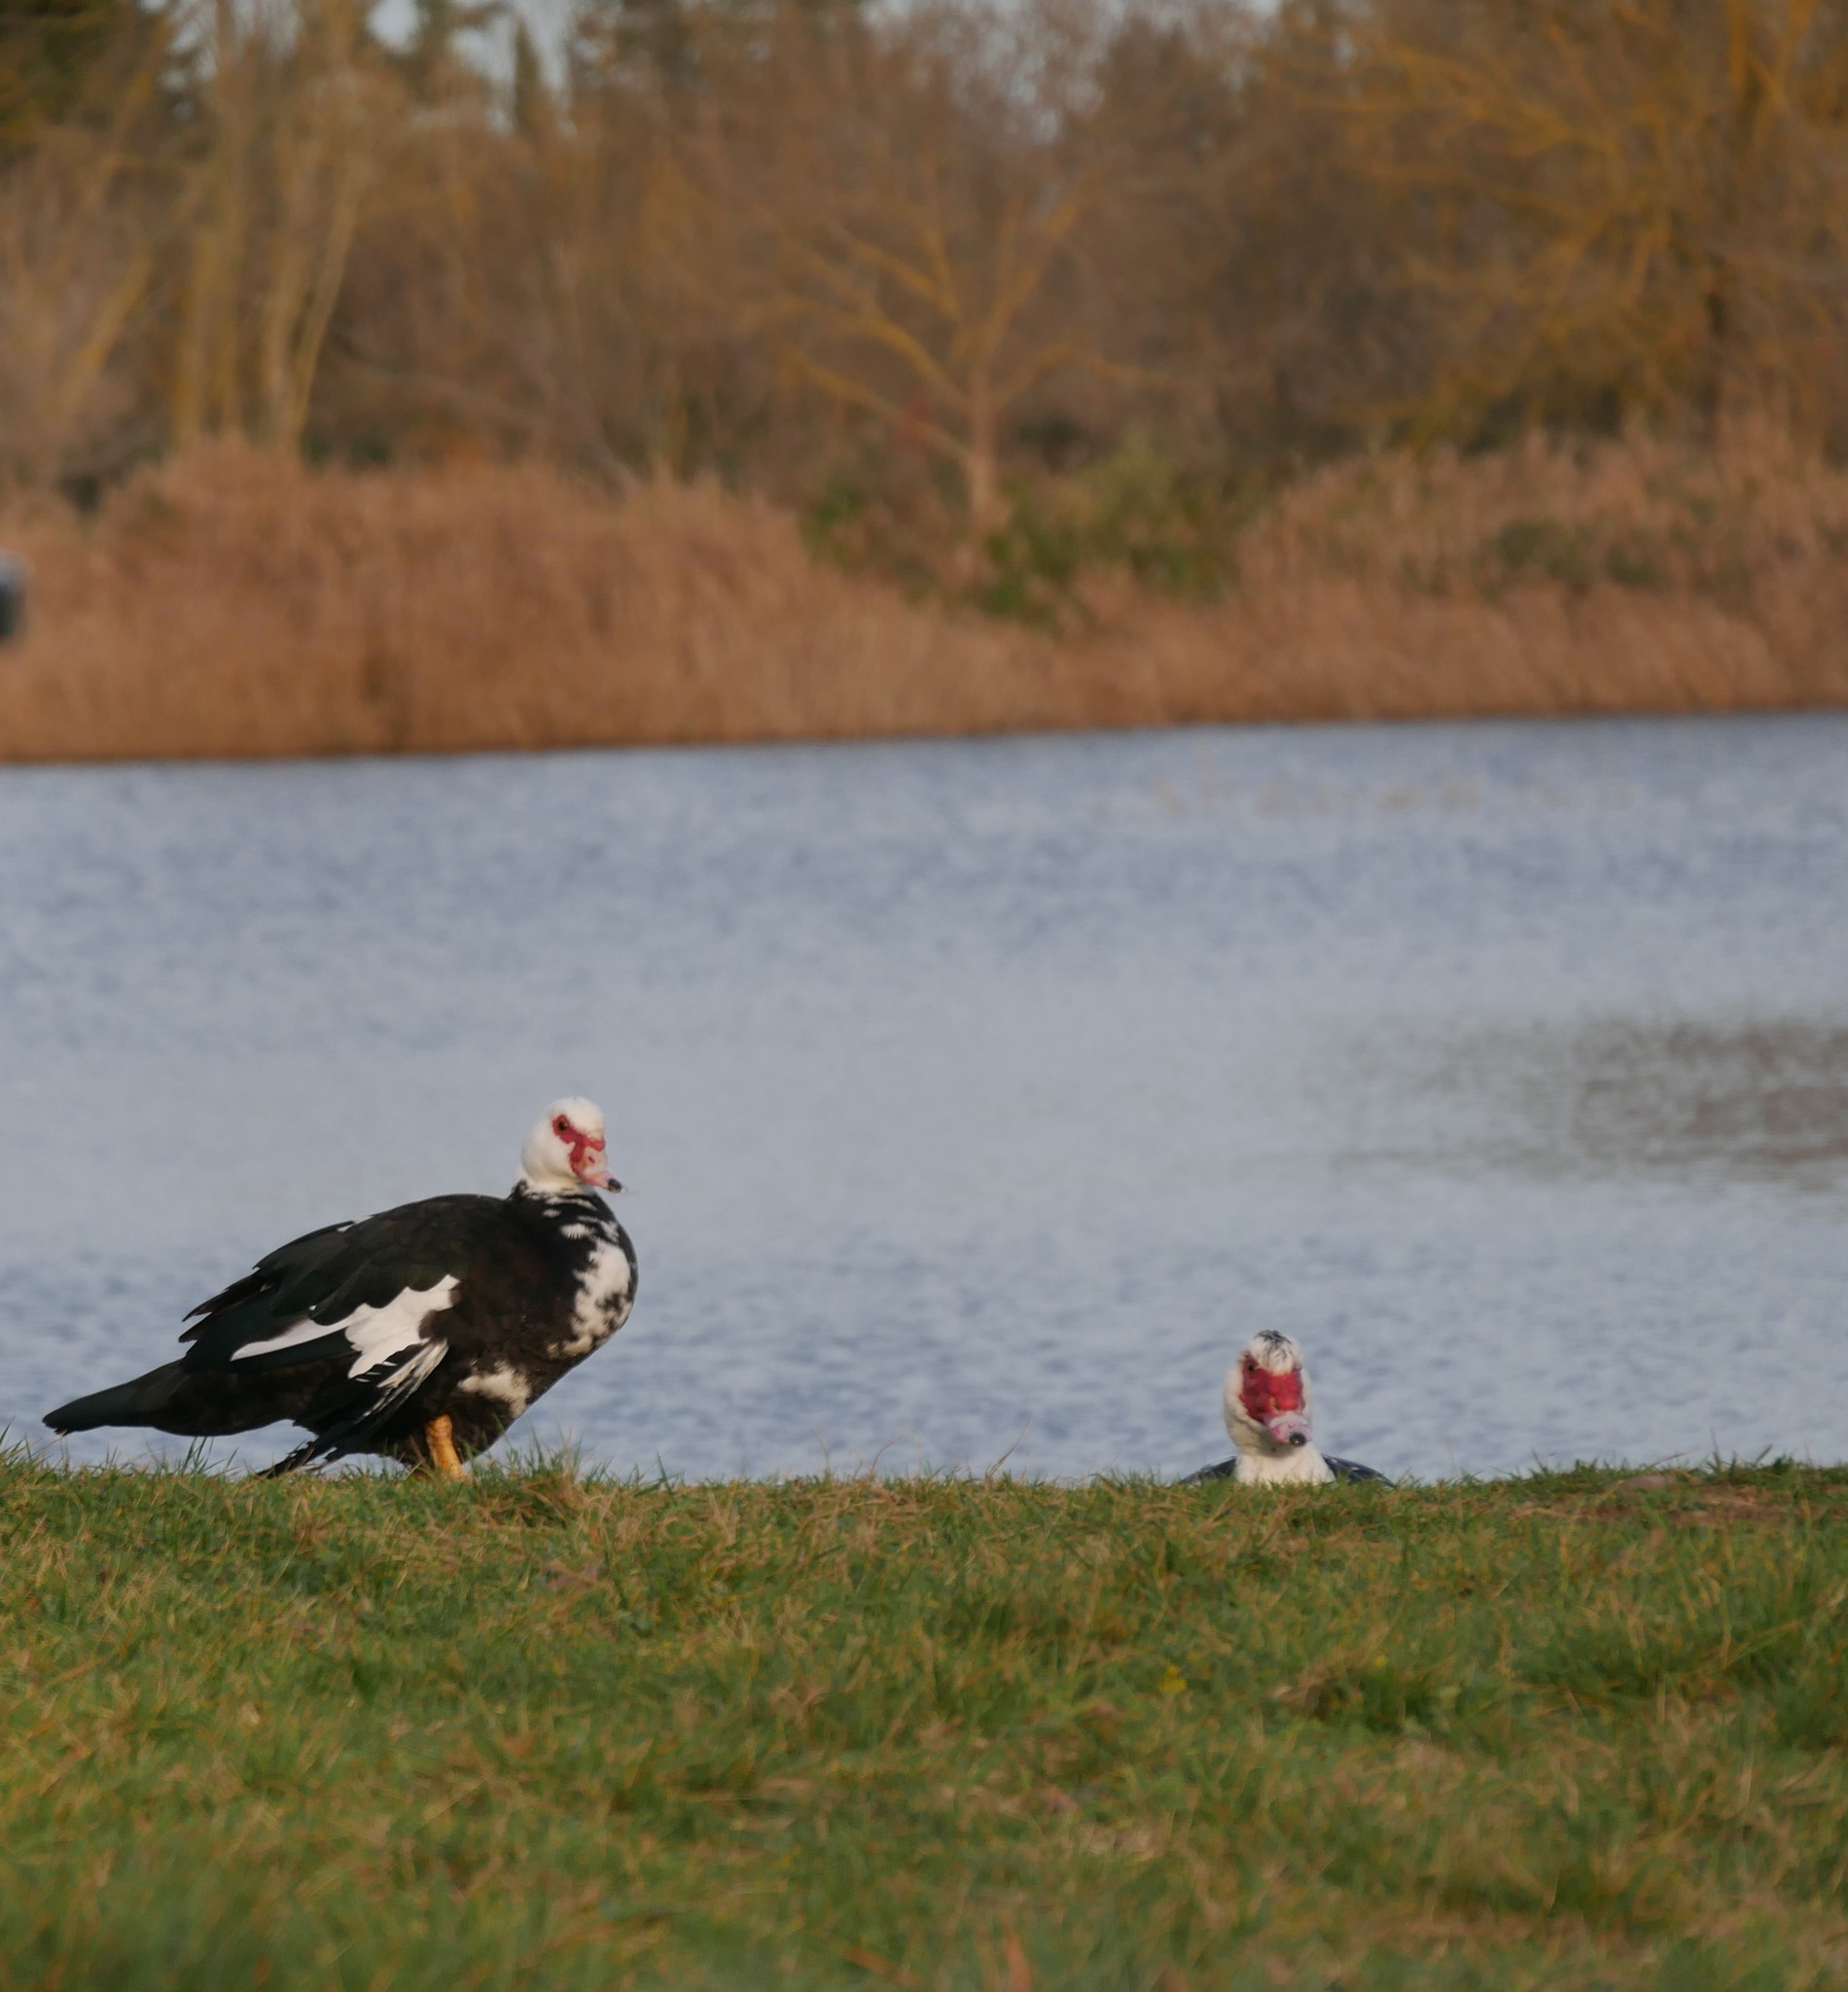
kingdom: Animalia
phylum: Chordata
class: Aves
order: Anseriformes
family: Anatidae
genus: Cairina
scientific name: Cairina moschata
